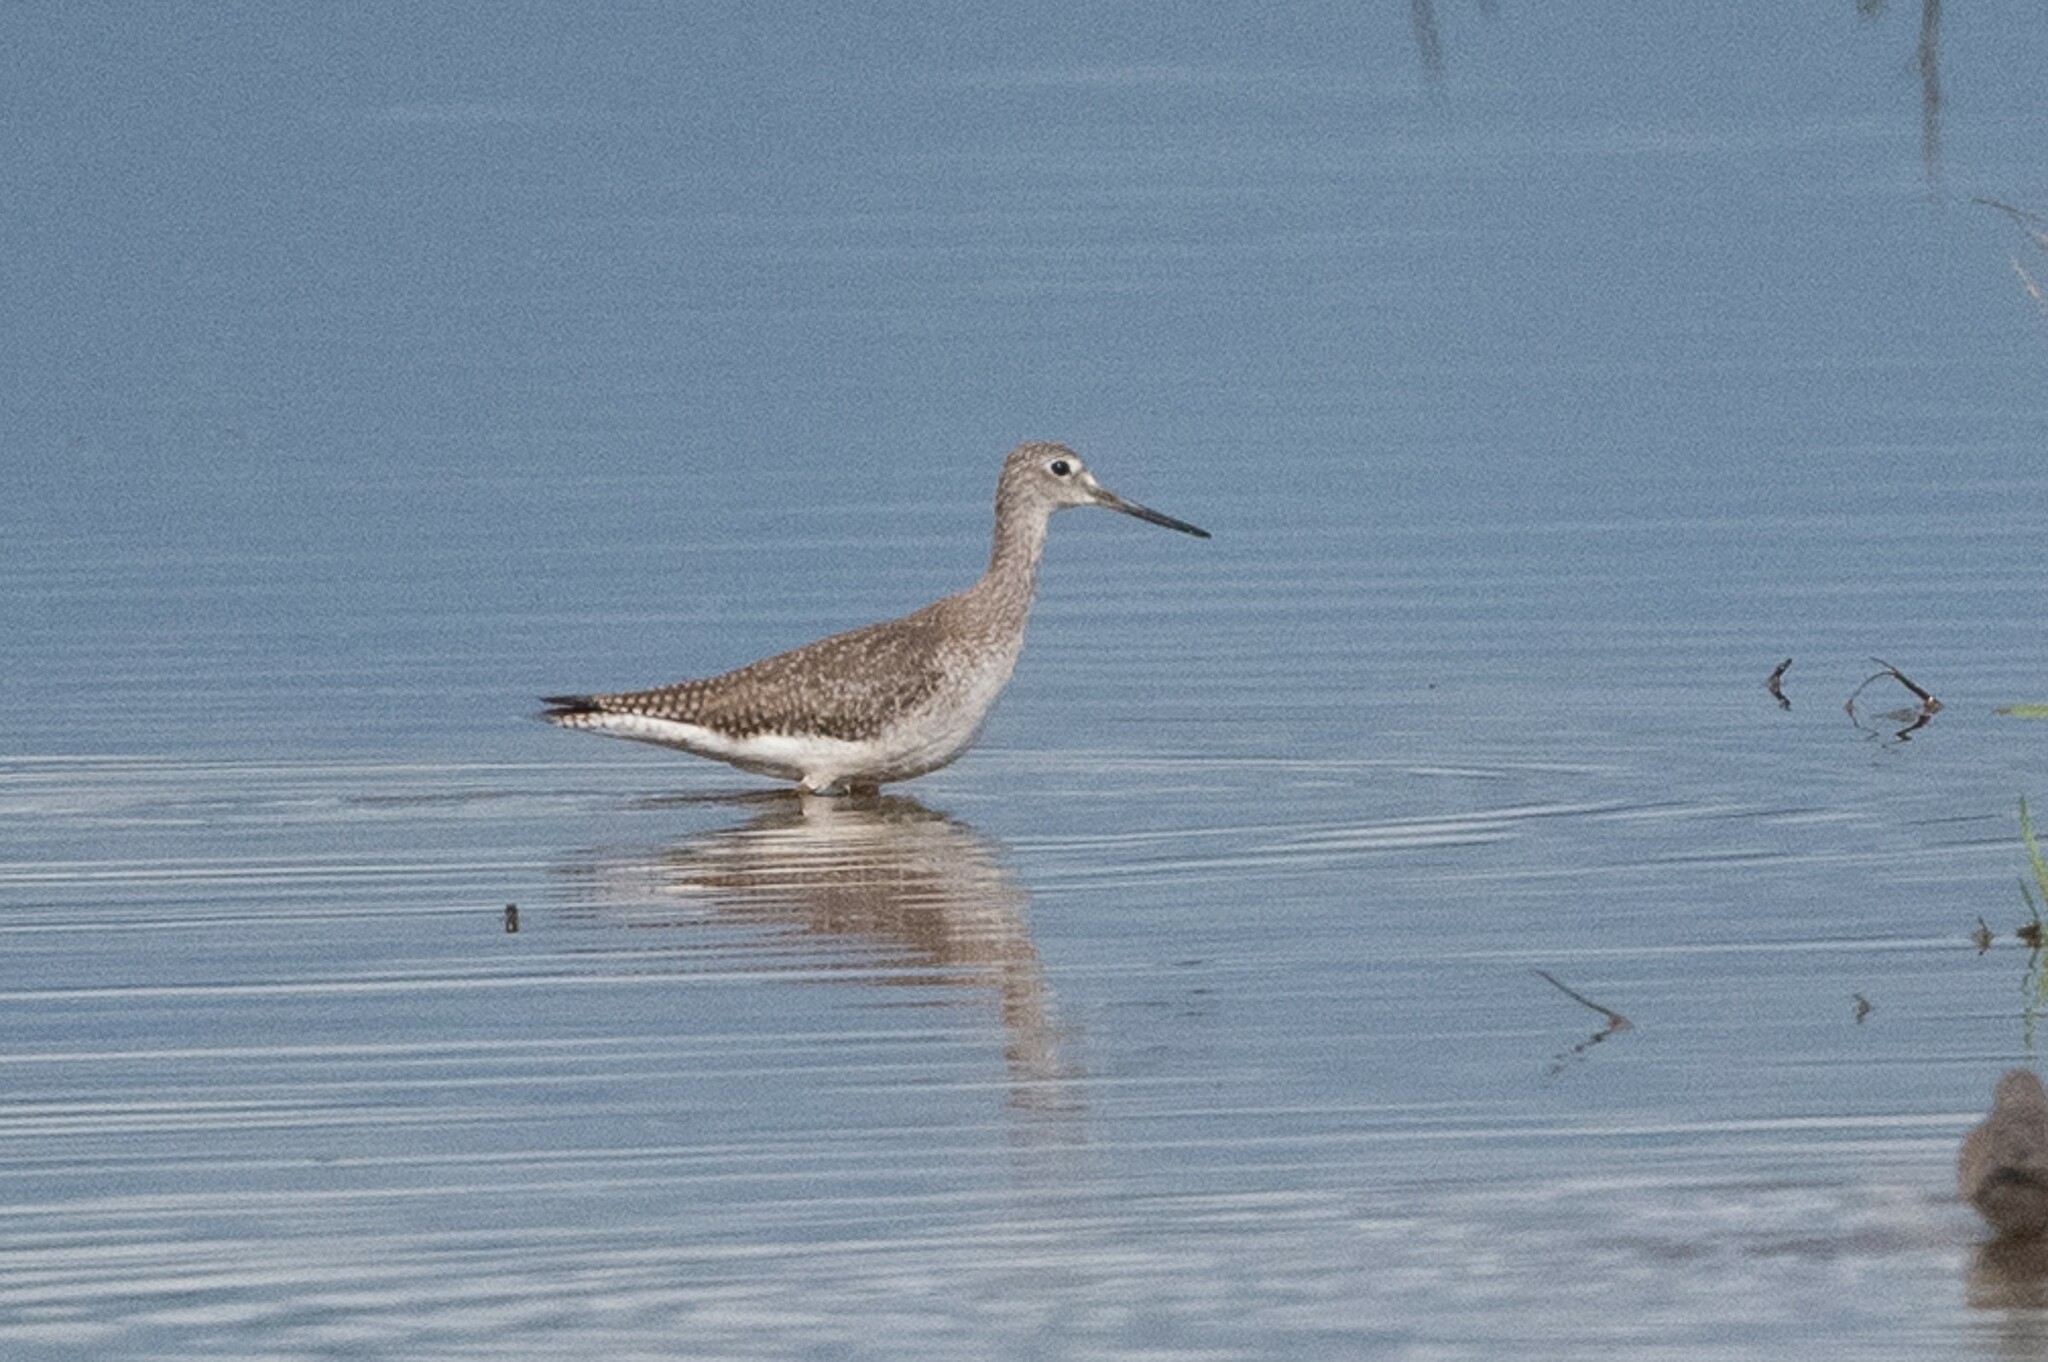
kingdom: Animalia
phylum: Chordata
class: Aves
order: Charadriiformes
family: Scolopacidae
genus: Tringa
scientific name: Tringa melanoleuca
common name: Greater yellowlegs
